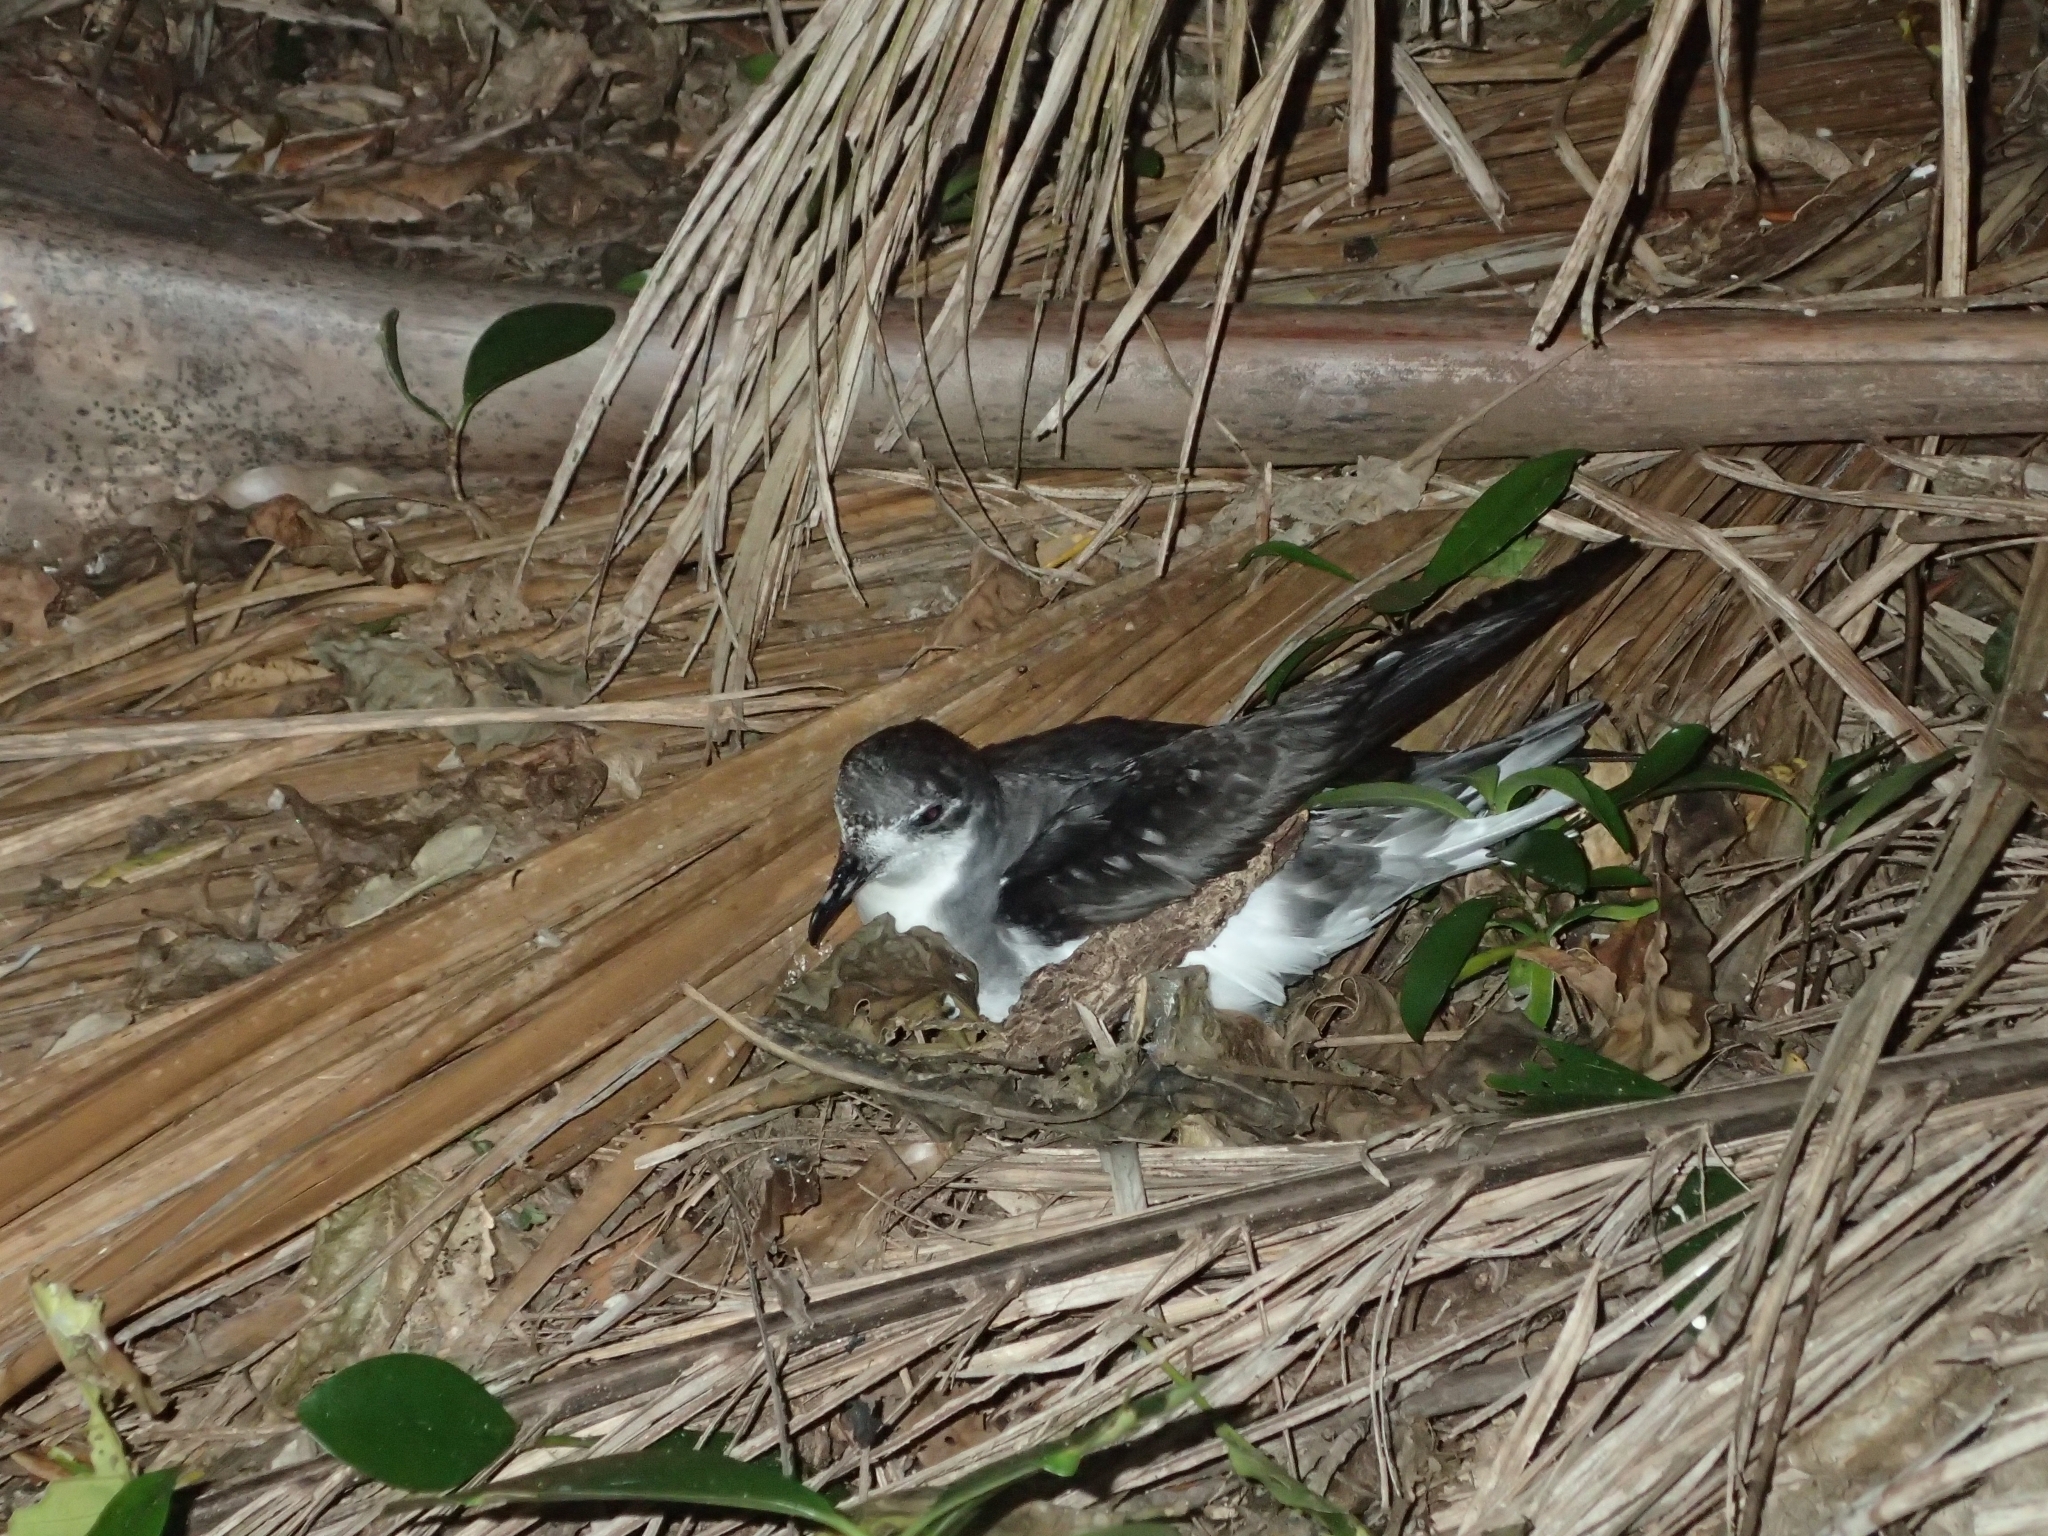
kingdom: Animalia
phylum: Chordata
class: Aves
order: Procellariiformes
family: Procellariidae
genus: Pterodroma
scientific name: Pterodroma pycrofti
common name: Pycroft's petrel
